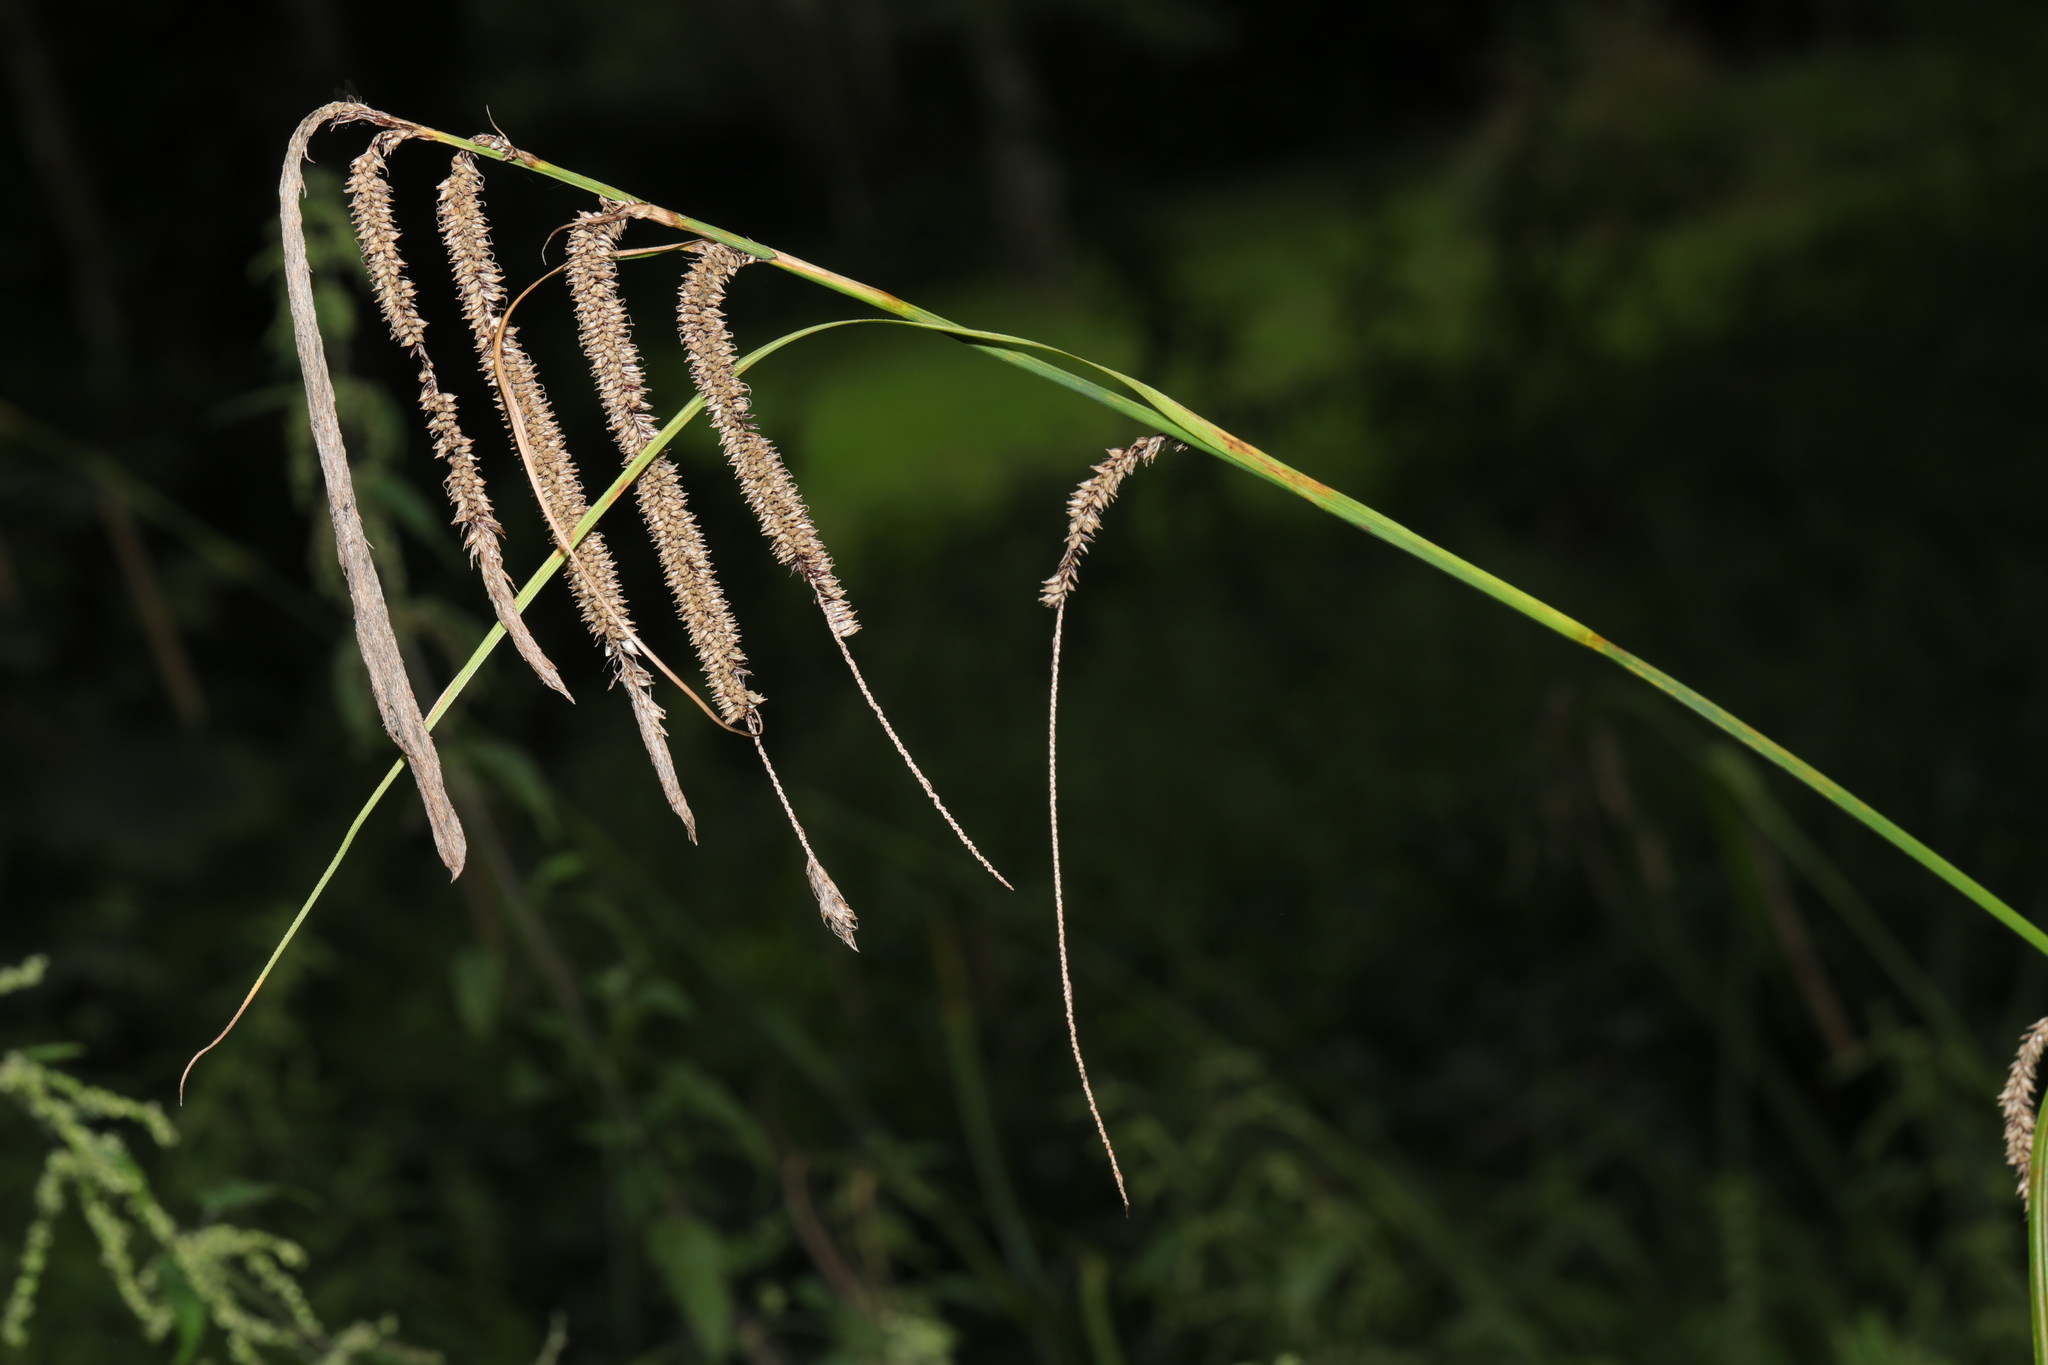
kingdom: Plantae
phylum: Tracheophyta
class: Liliopsida
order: Poales
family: Cyperaceae
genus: Carex
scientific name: Carex pendula
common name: Pendulous sedge
